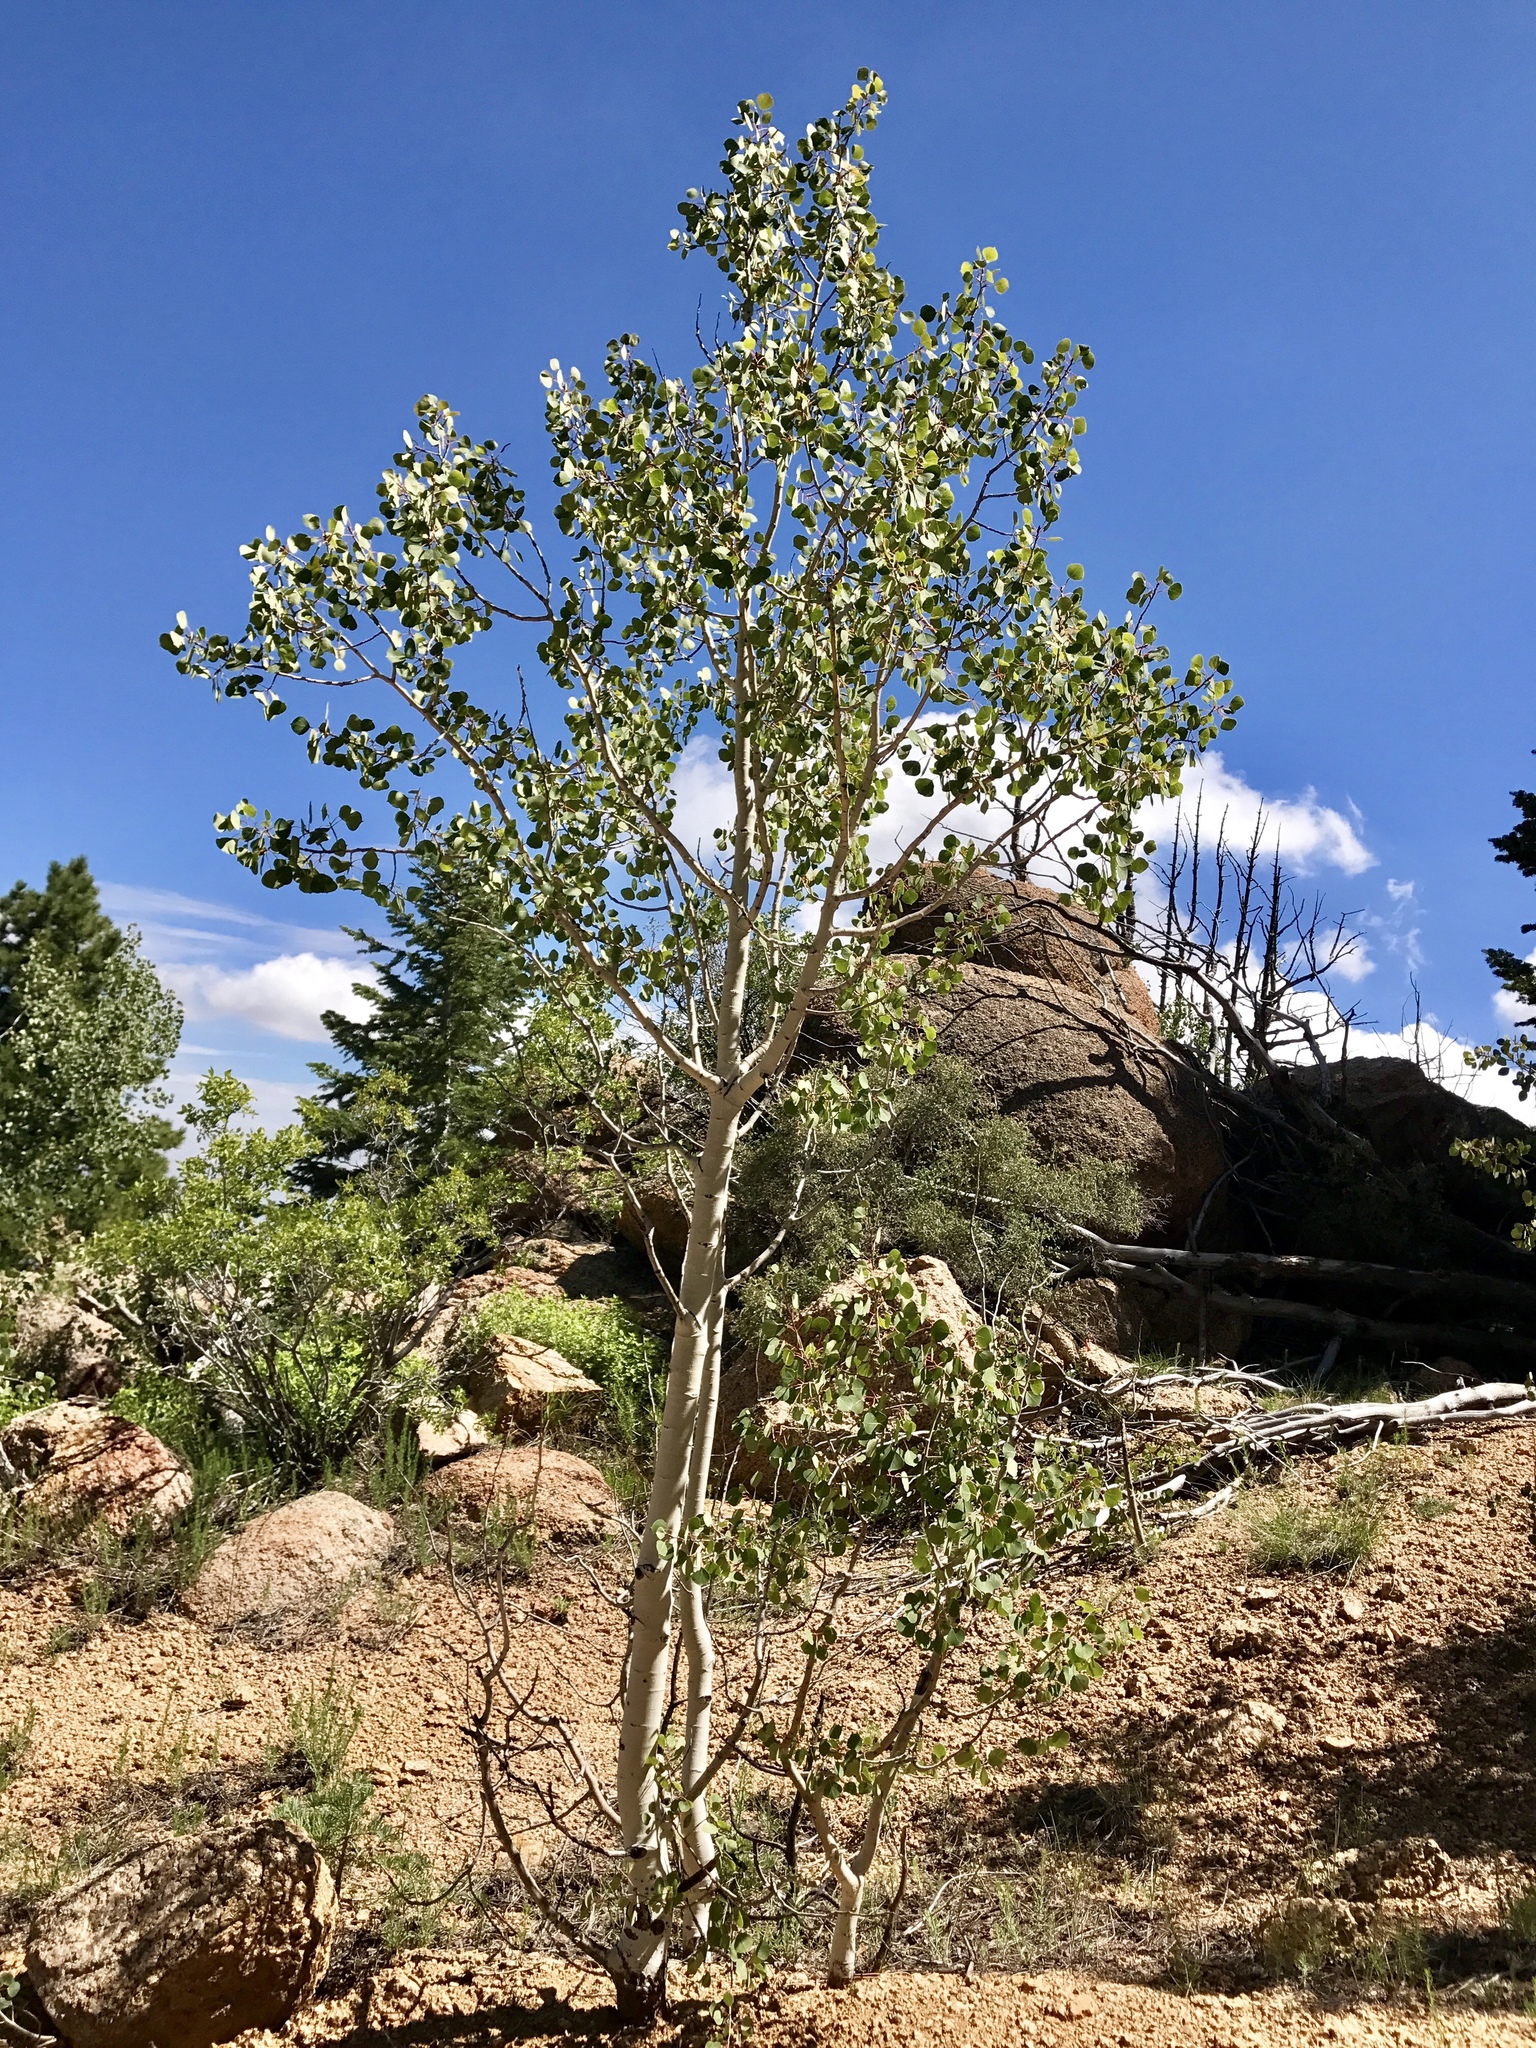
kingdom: Plantae
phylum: Tracheophyta
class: Magnoliopsida
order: Malpighiales
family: Salicaceae
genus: Populus
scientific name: Populus tremuloides
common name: Quaking aspen
